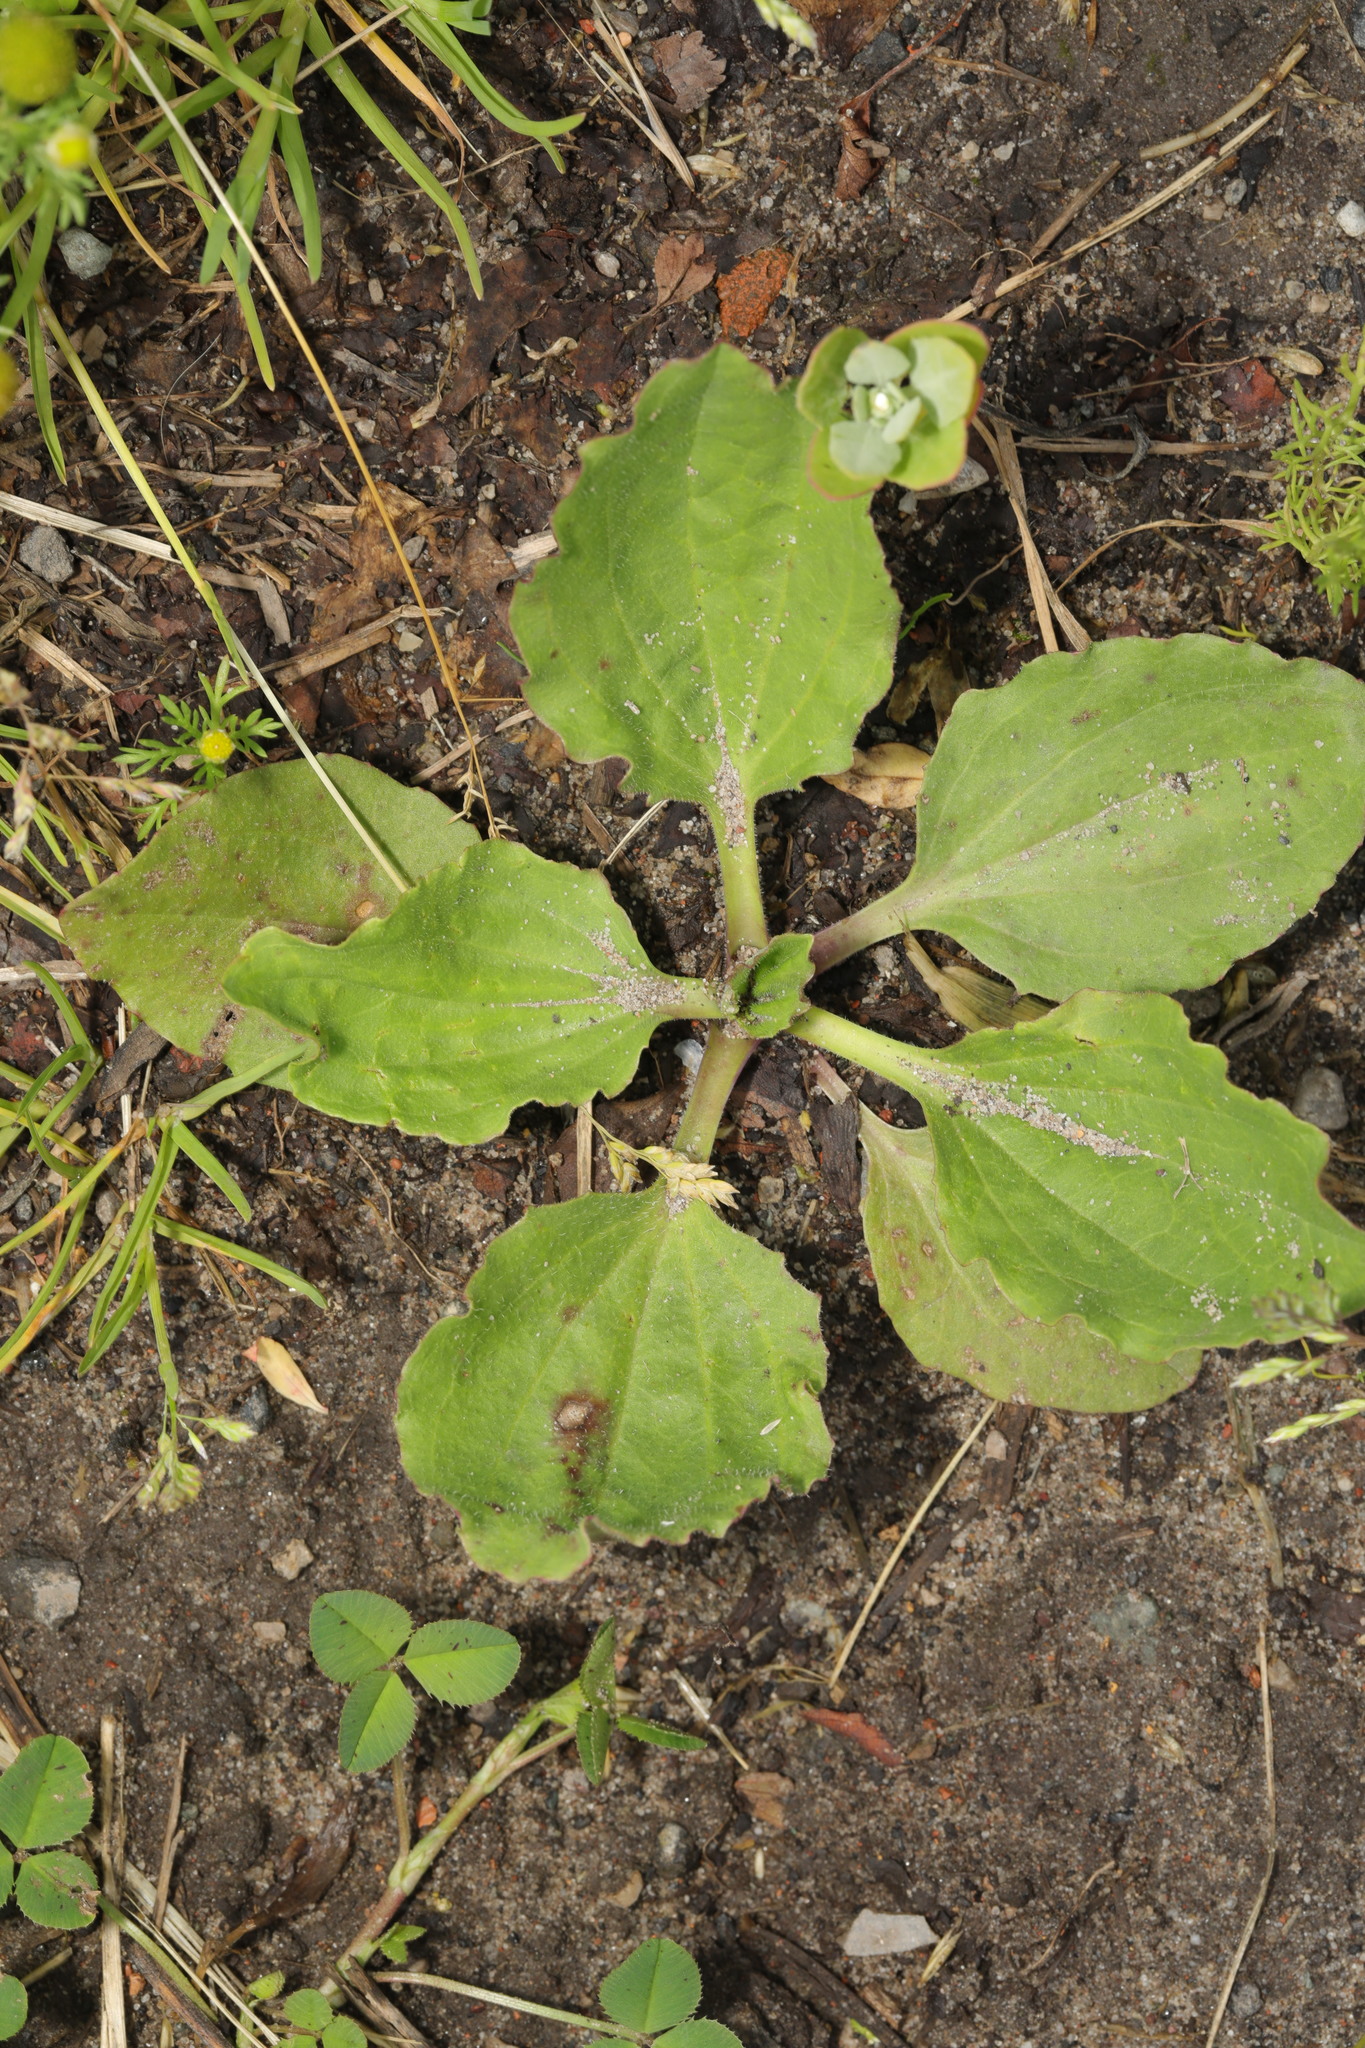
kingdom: Plantae
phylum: Tracheophyta
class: Magnoliopsida
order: Lamiales
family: Plantaginaceae
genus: Plantago
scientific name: Plantago major
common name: Common plantain
